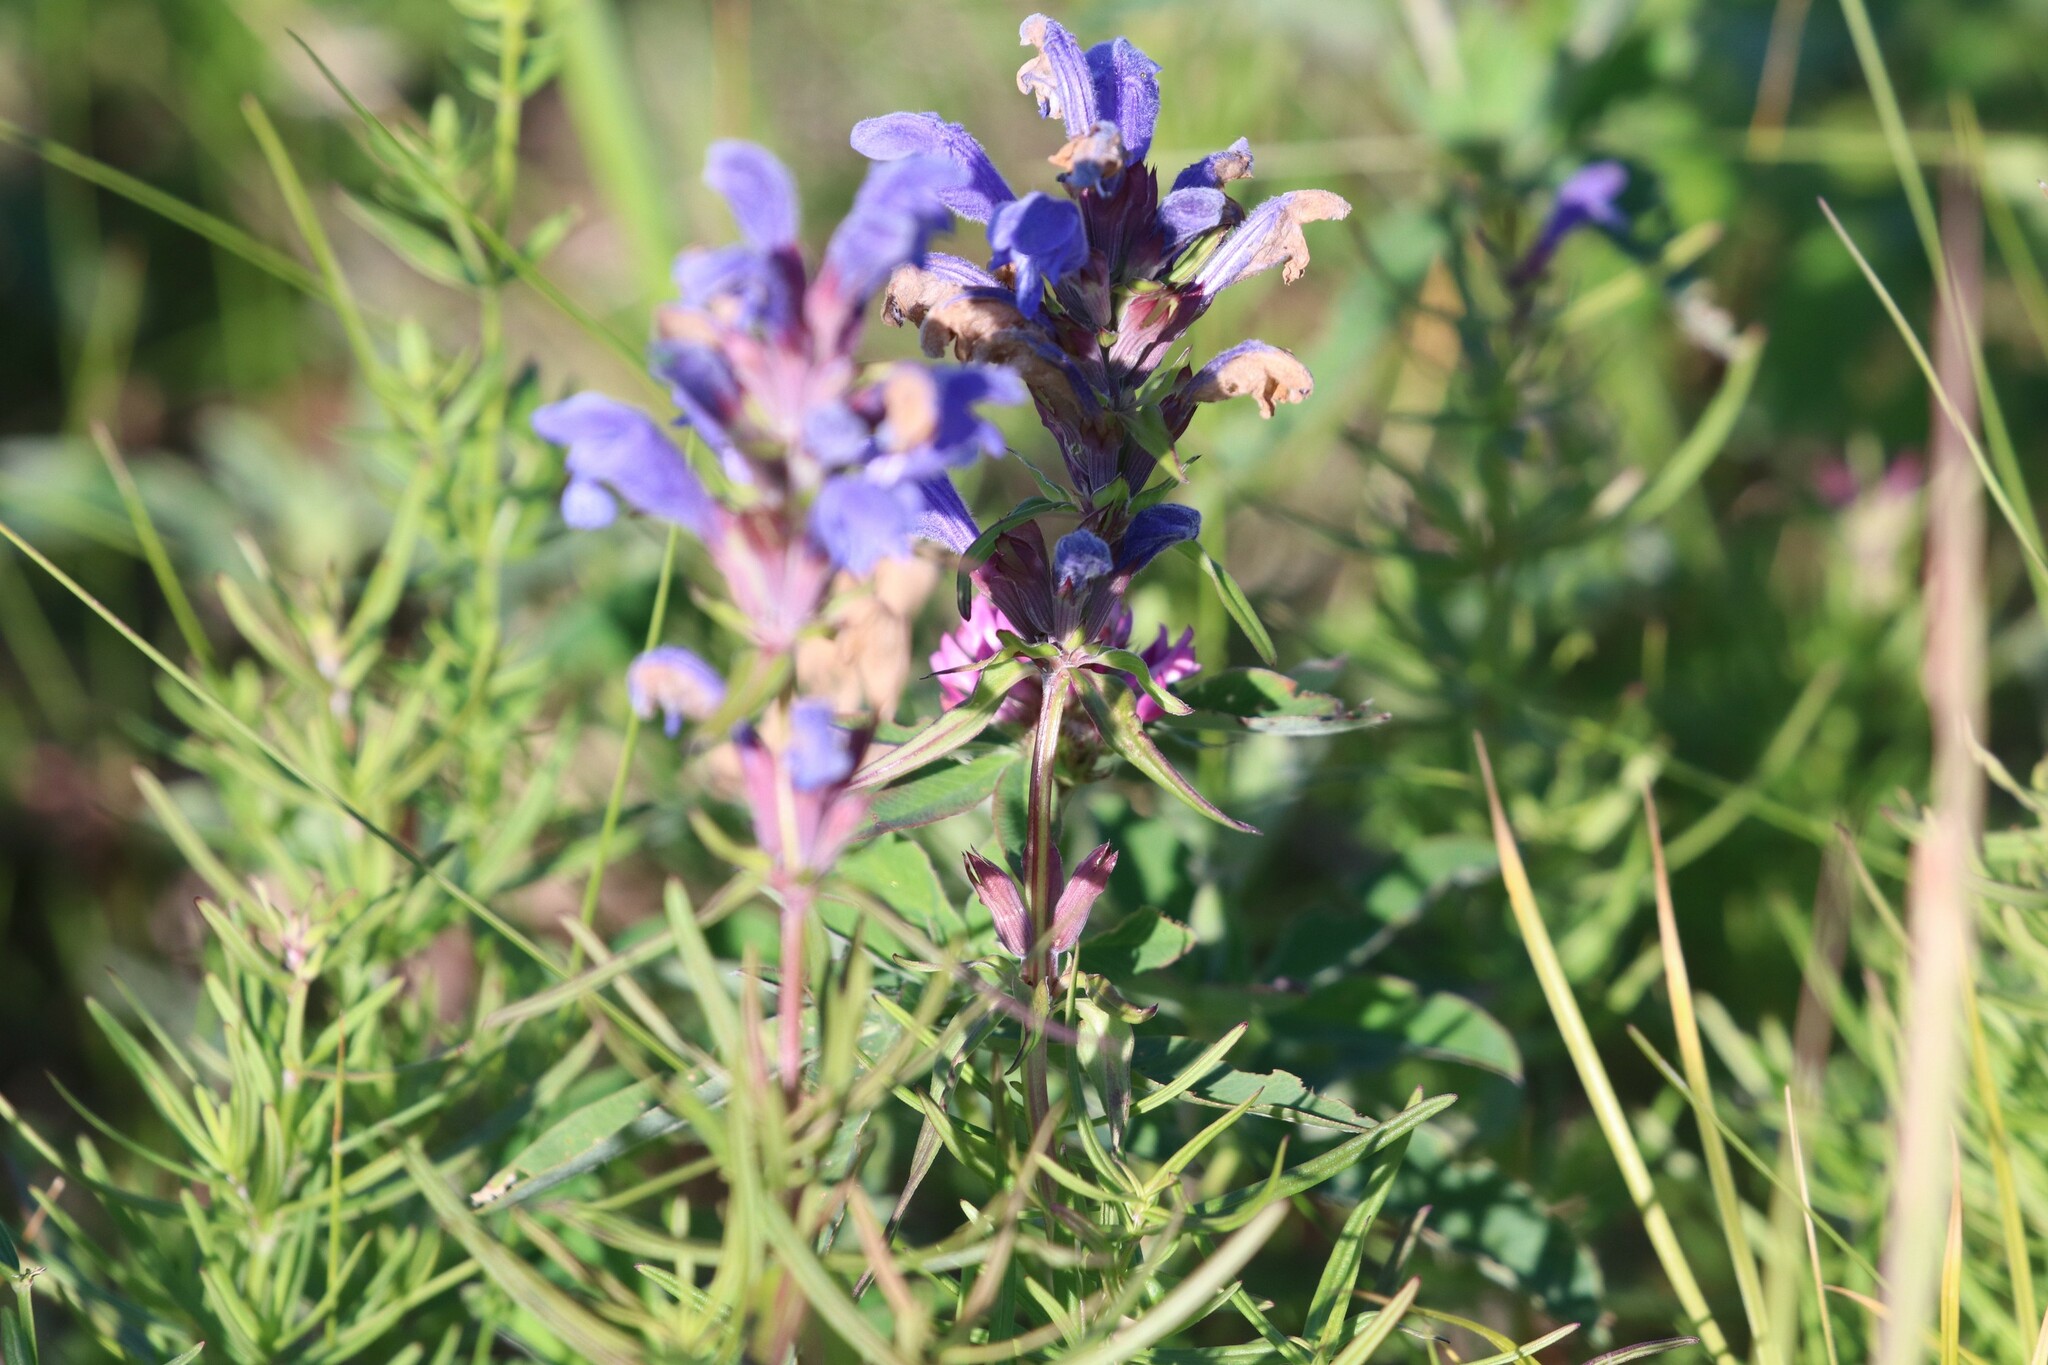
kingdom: Plantae
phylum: Tracheophyta
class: Magnoliopsida
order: Lamiales
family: Lamiaceae
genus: Dracocephalum
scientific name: Dracocephalum ruyschiana
